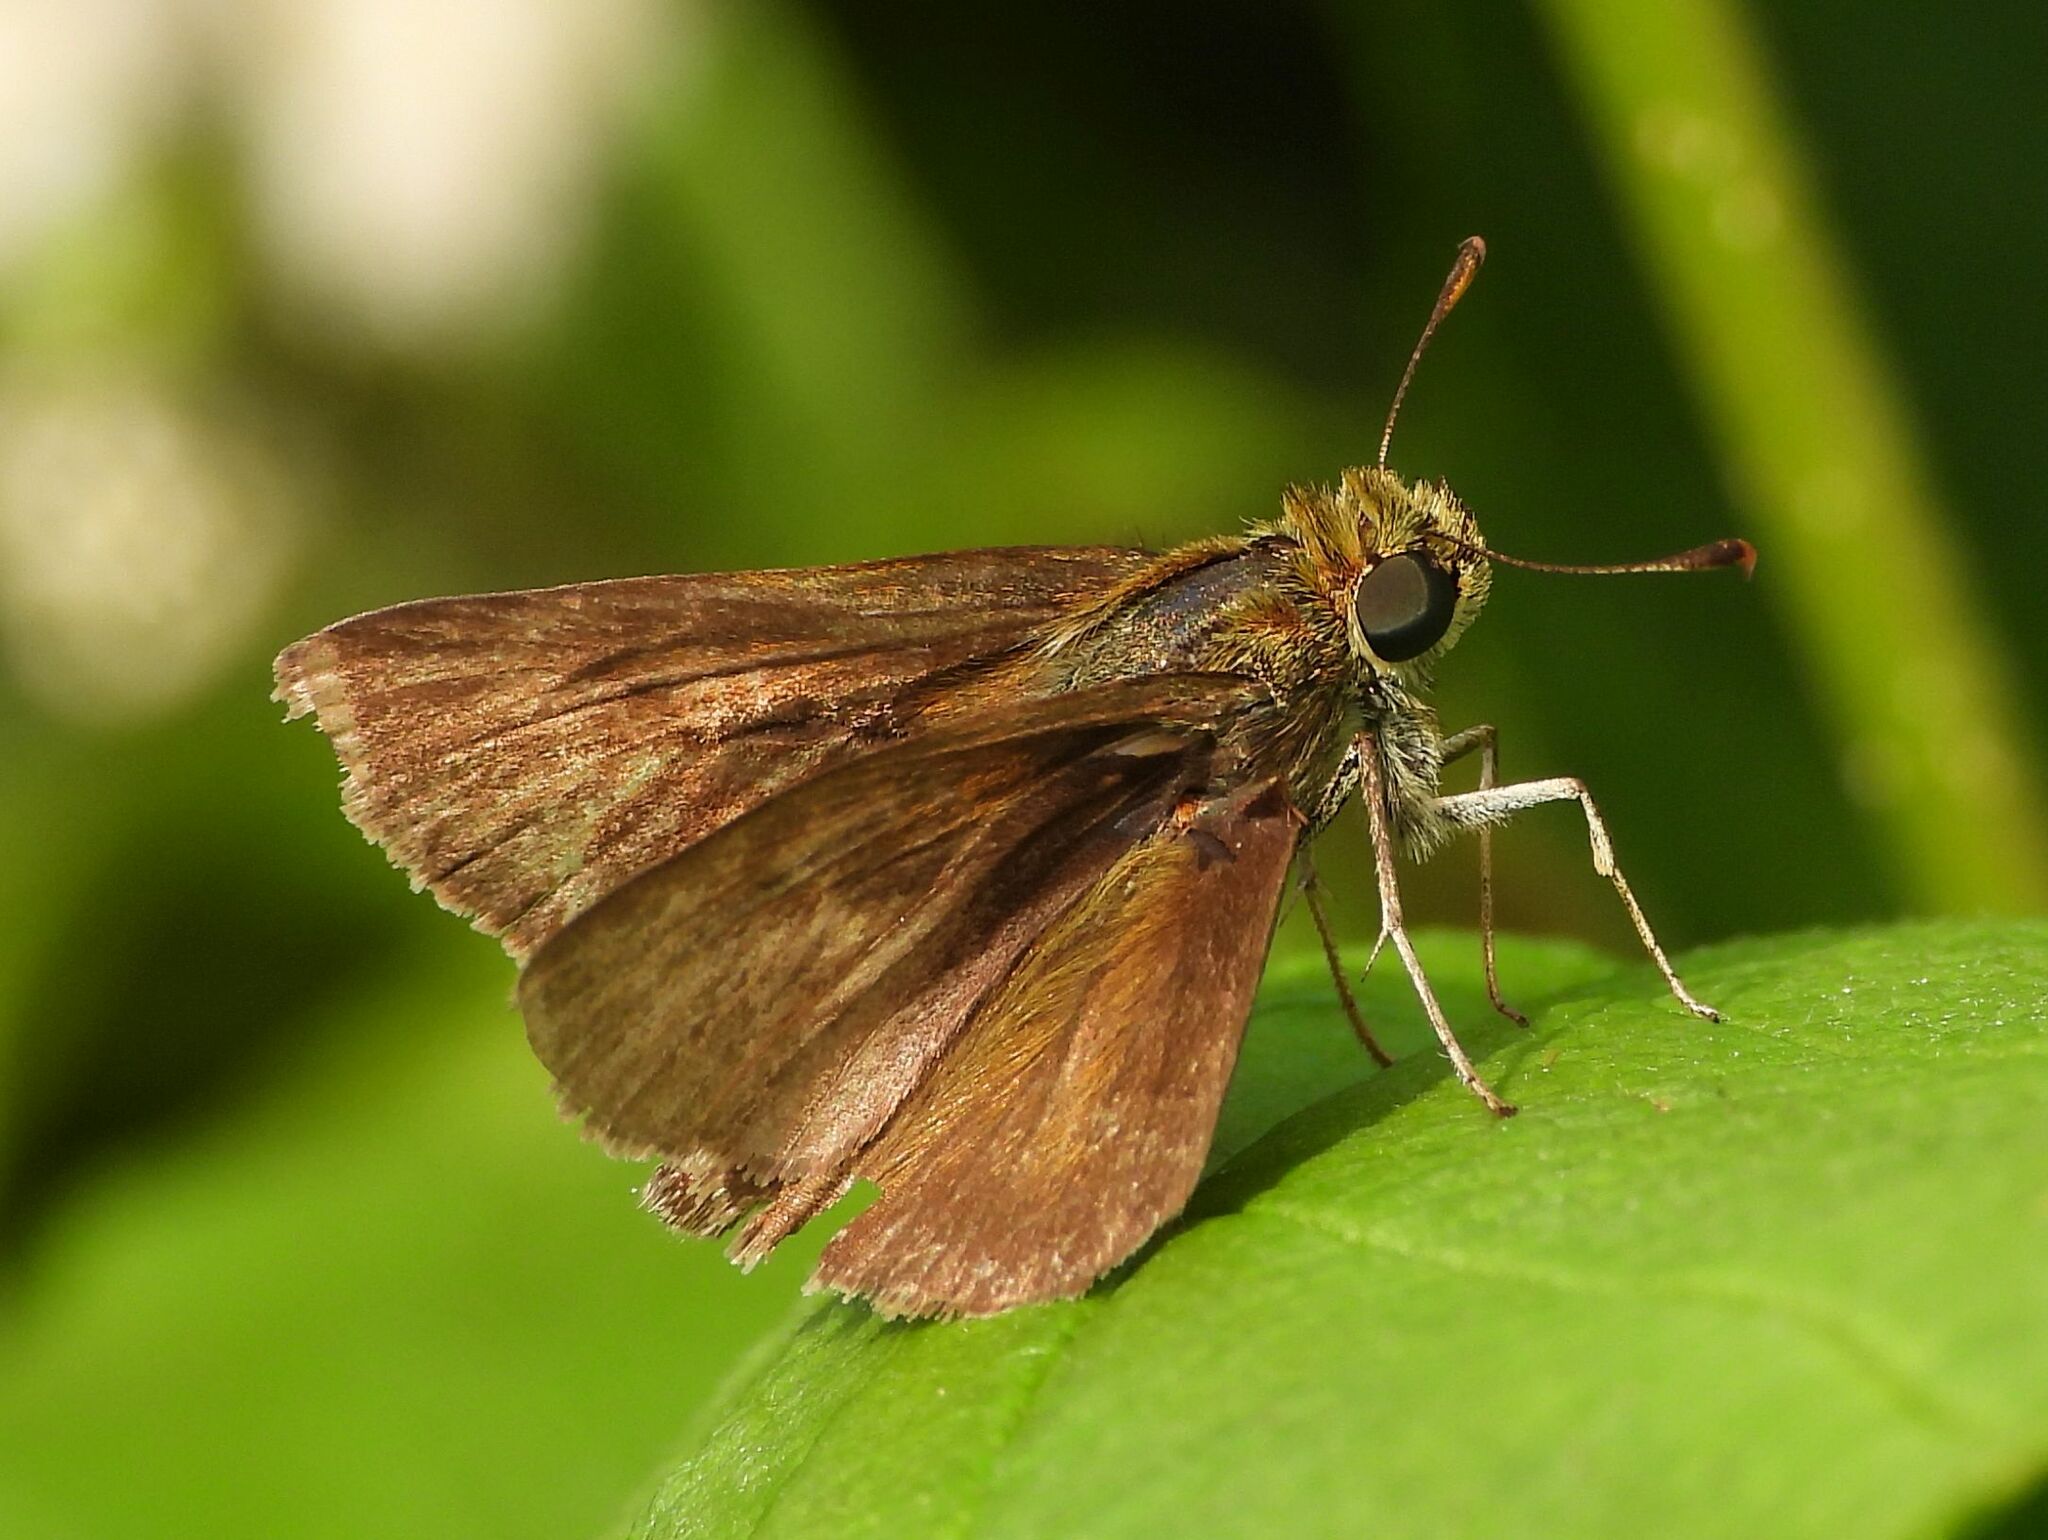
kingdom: Animalia
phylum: Arthropoda
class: Insecta
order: Lepidoptera
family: Hesperiidae
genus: Euphyes
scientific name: Euphyes vestris
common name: Dun skipper
